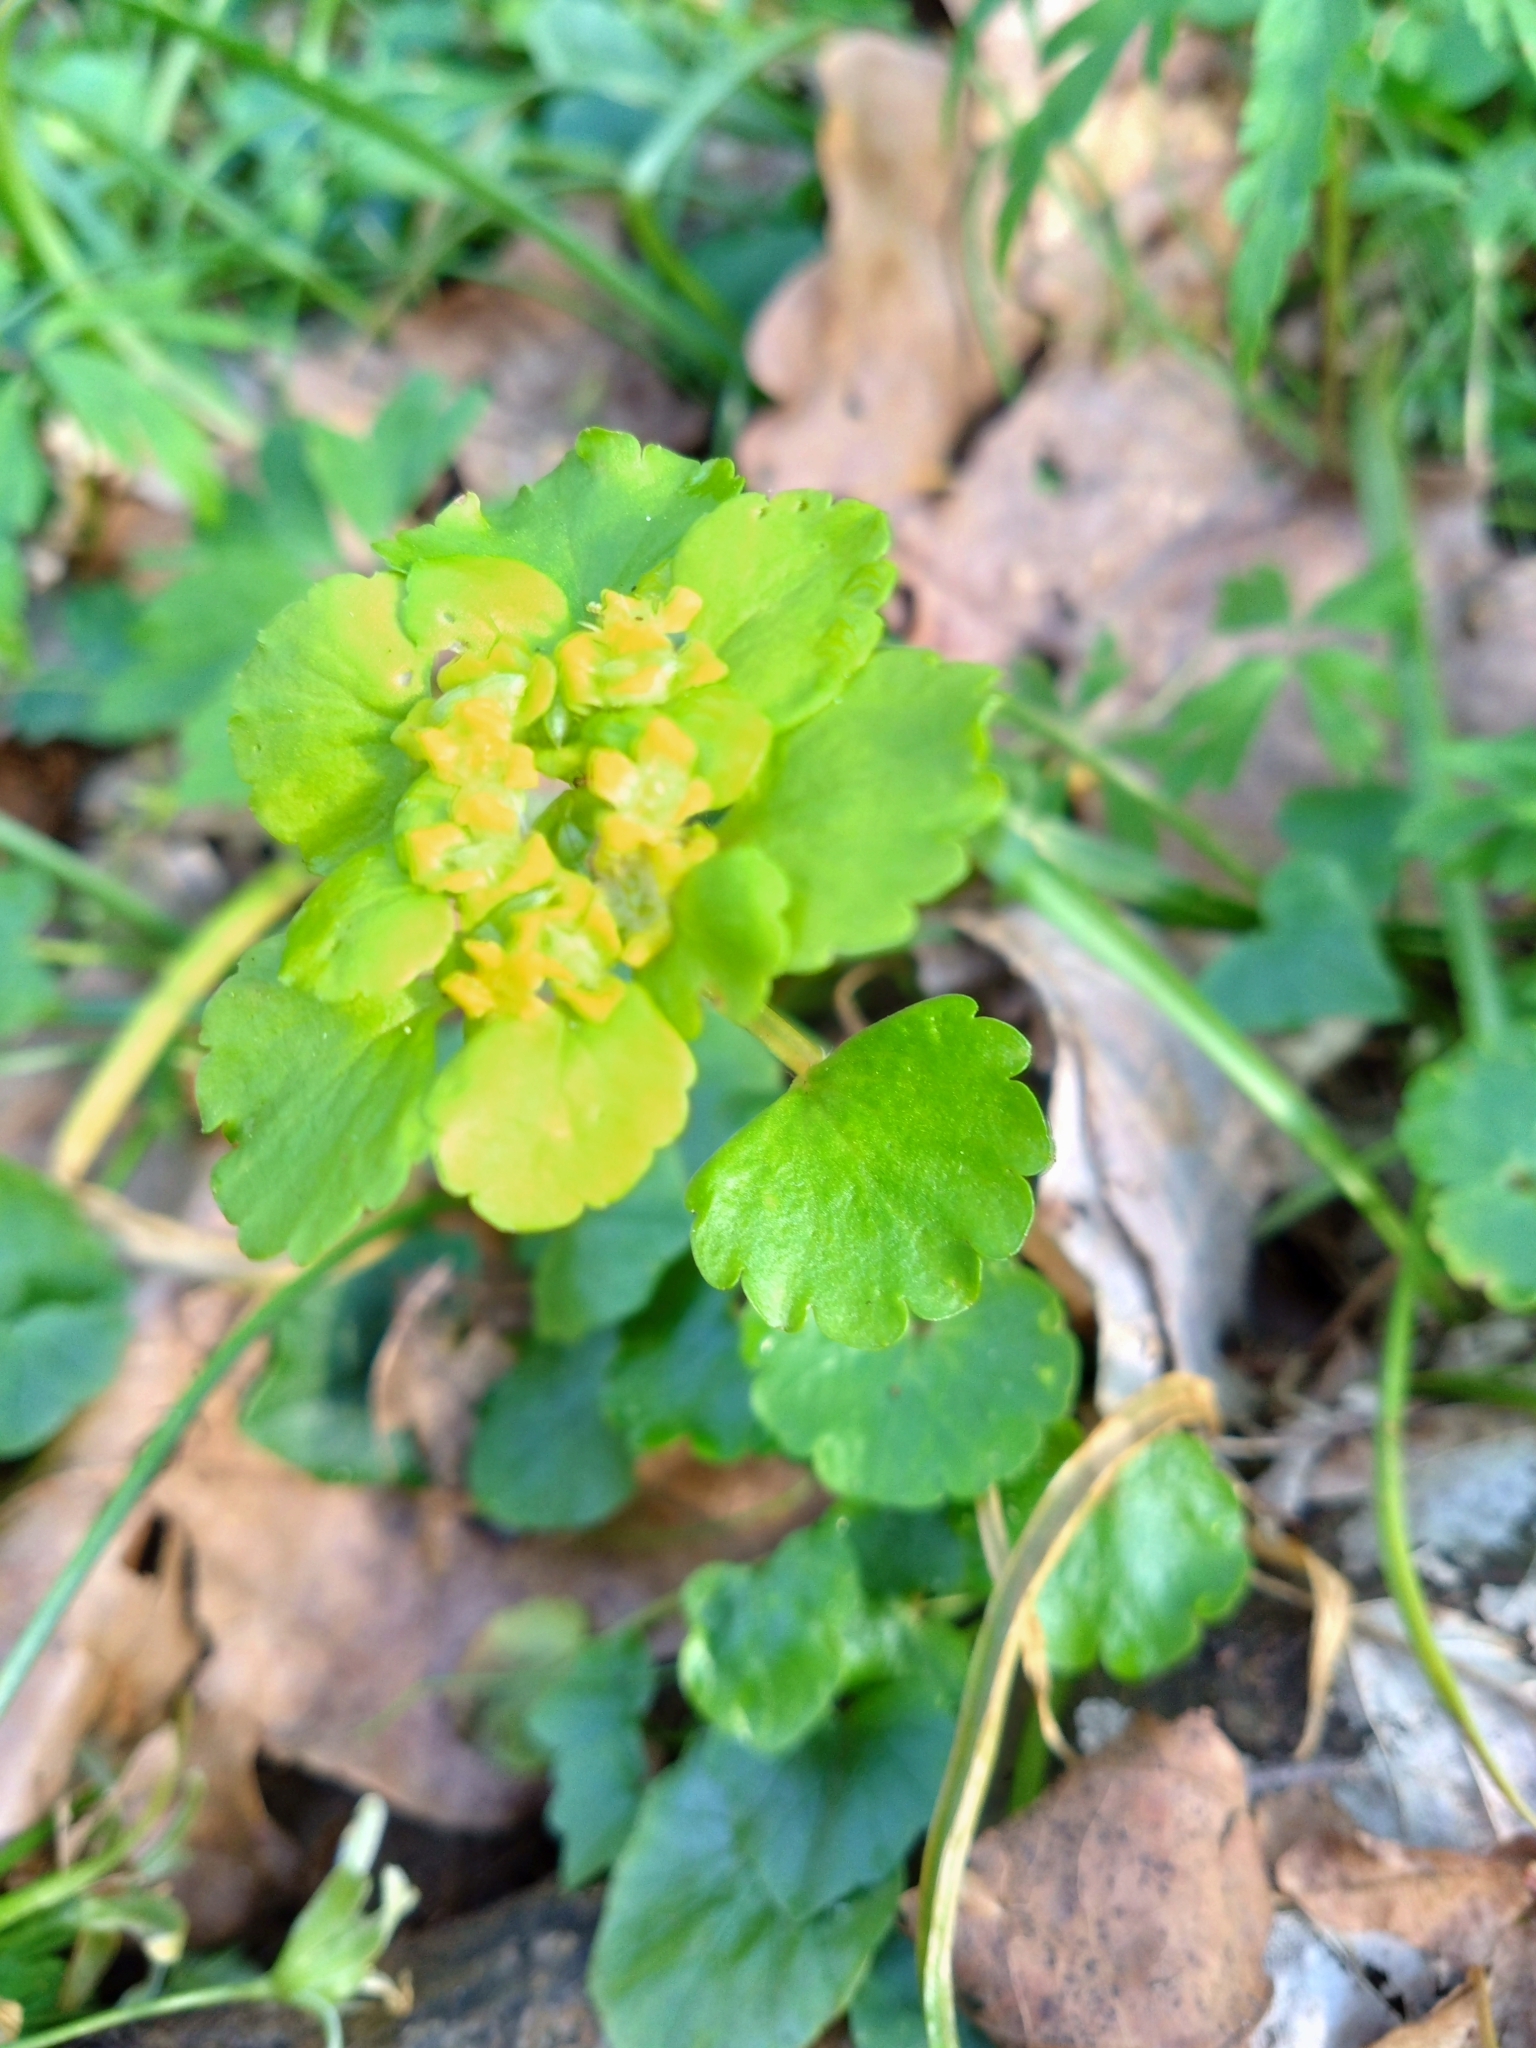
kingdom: Plantae
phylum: Tracheophyta
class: Magnoliopsida
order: Saxifragales
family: Saxifragaceae
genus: Chrysosplenium
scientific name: Chrysosplenium alternifolium
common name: Alternate-leaved golden-saxifrage
